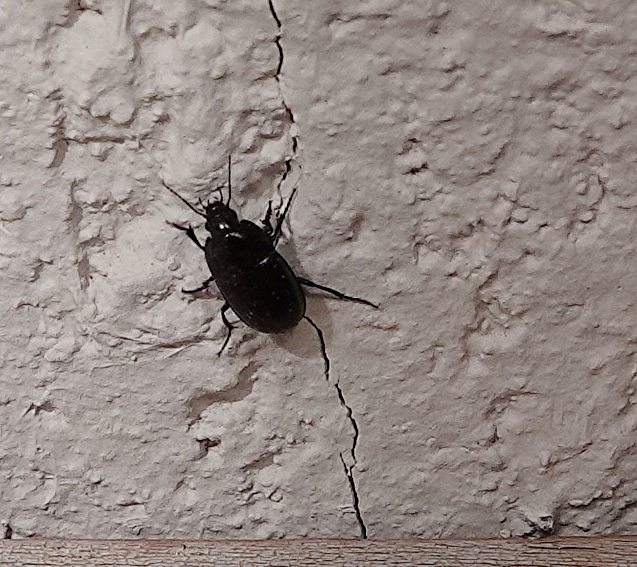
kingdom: Animalia
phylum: Arthropoda
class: Insecta
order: Coleoptera
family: Carabidae
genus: Amara
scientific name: Amara
